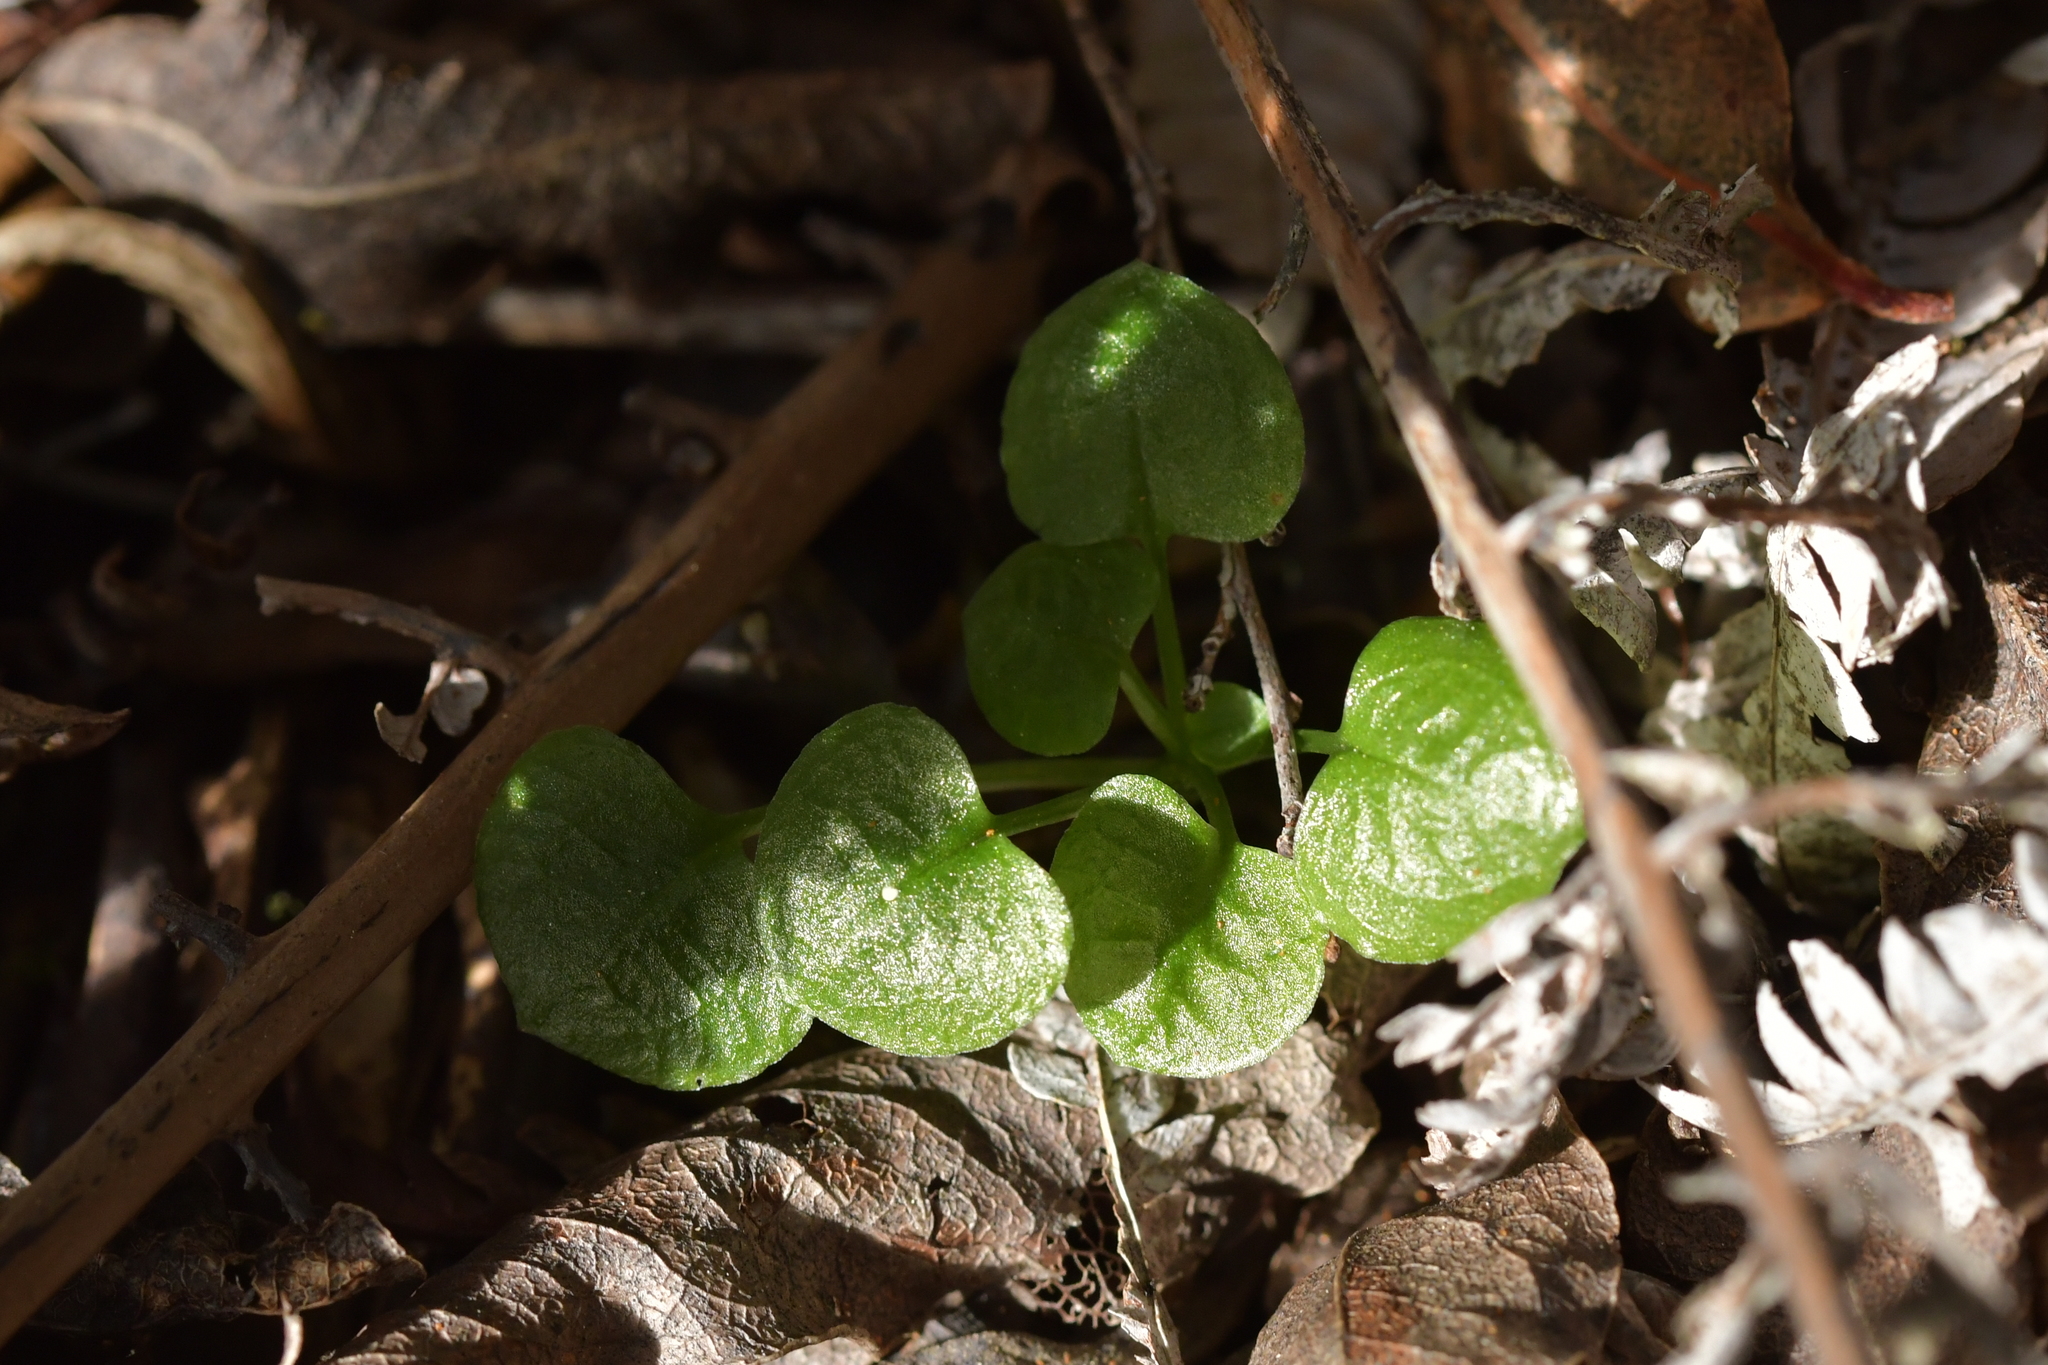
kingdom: Plantae
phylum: Tracheophyta
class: Liliopsida
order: Asparagales
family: Orchidaceae
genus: Pterostylis
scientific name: Pterostylis alobula
